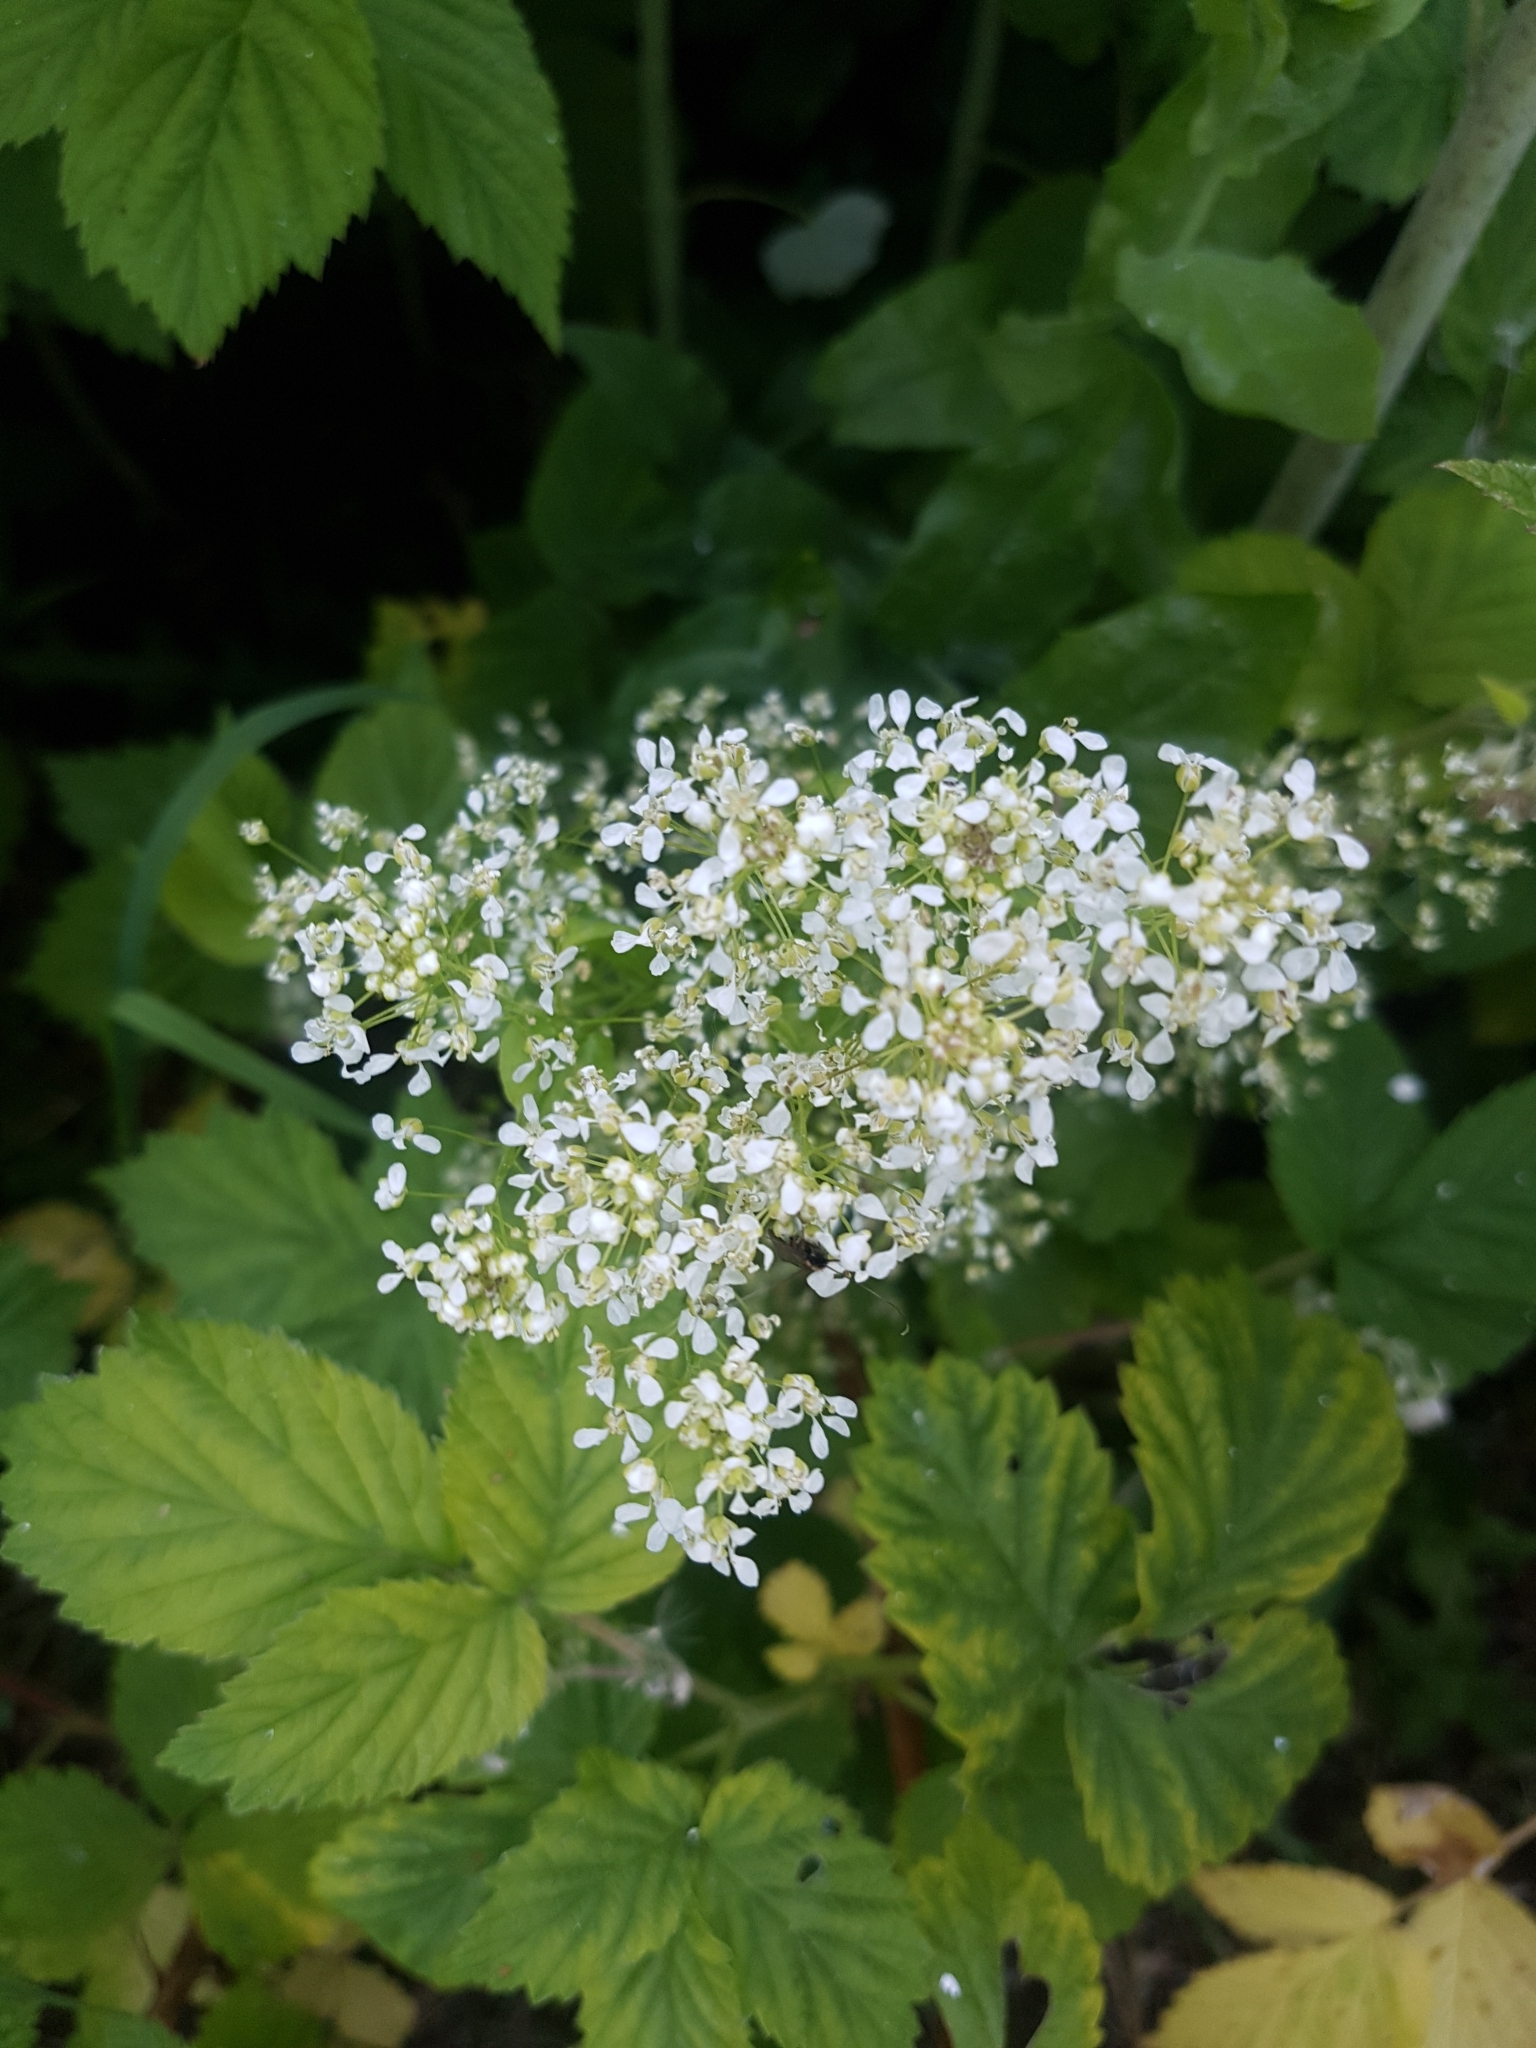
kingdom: Plantae
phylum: Tracheophyta
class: Magnoliopsida
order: Brassicales
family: Brassicaceae
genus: Lepidium
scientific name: Lepidium draba
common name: Hoary cress
